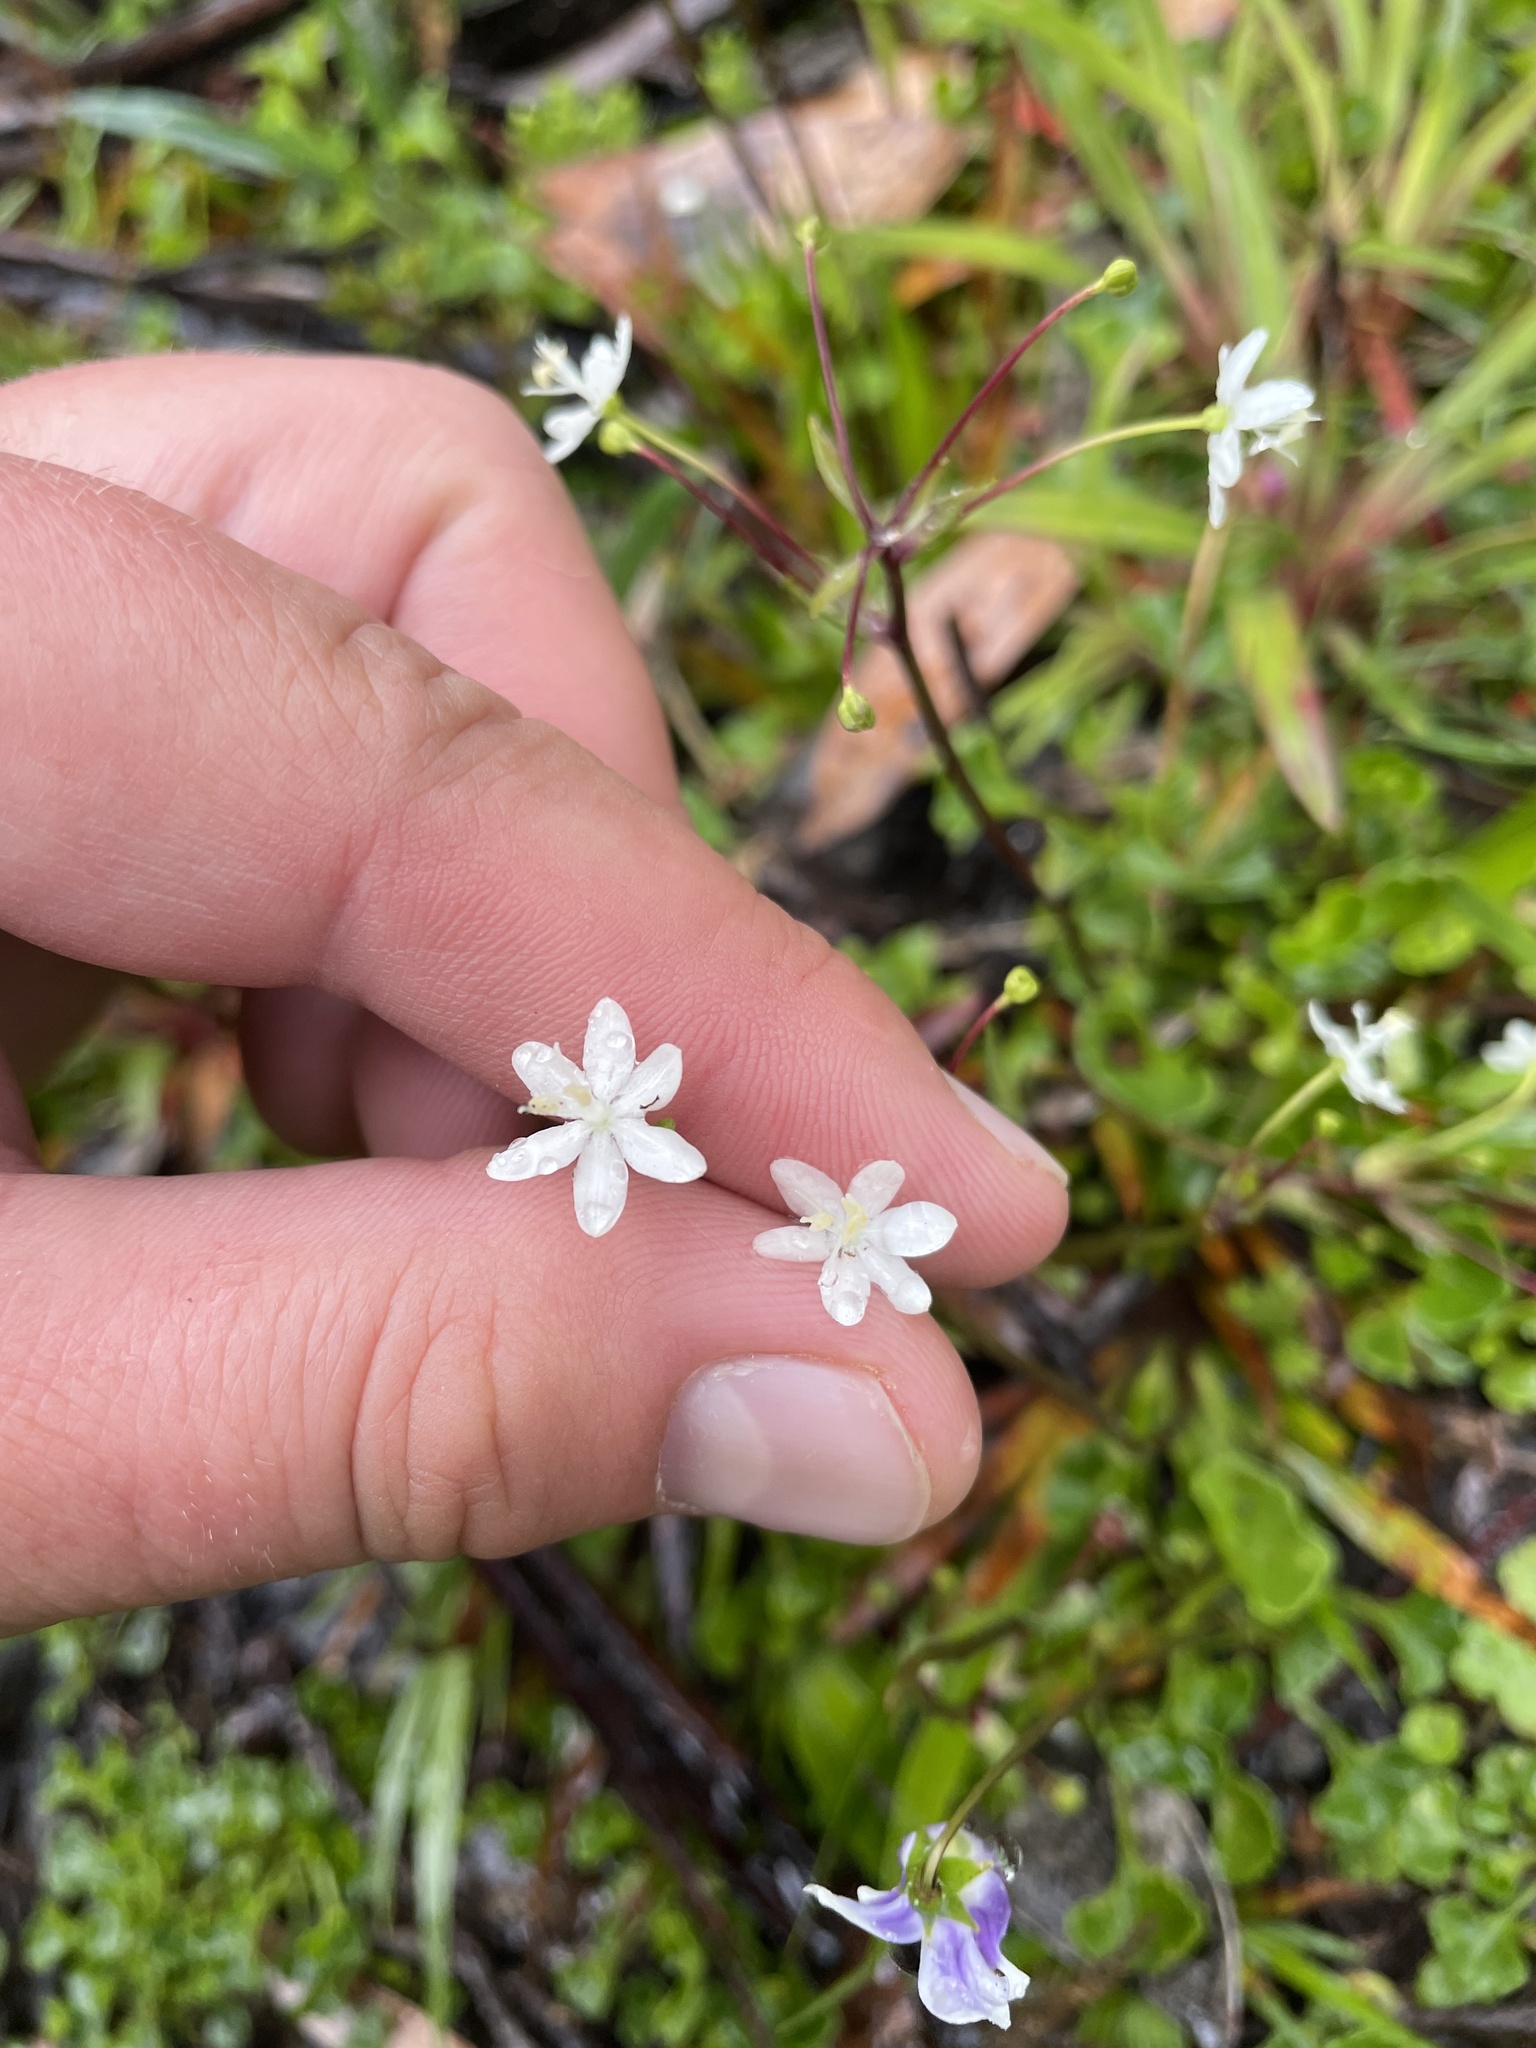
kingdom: Plantae
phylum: Tracheophyta
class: Liliopsida
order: Asparagales
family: Iridaceae
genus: Libertia
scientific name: Libertia pulchella
